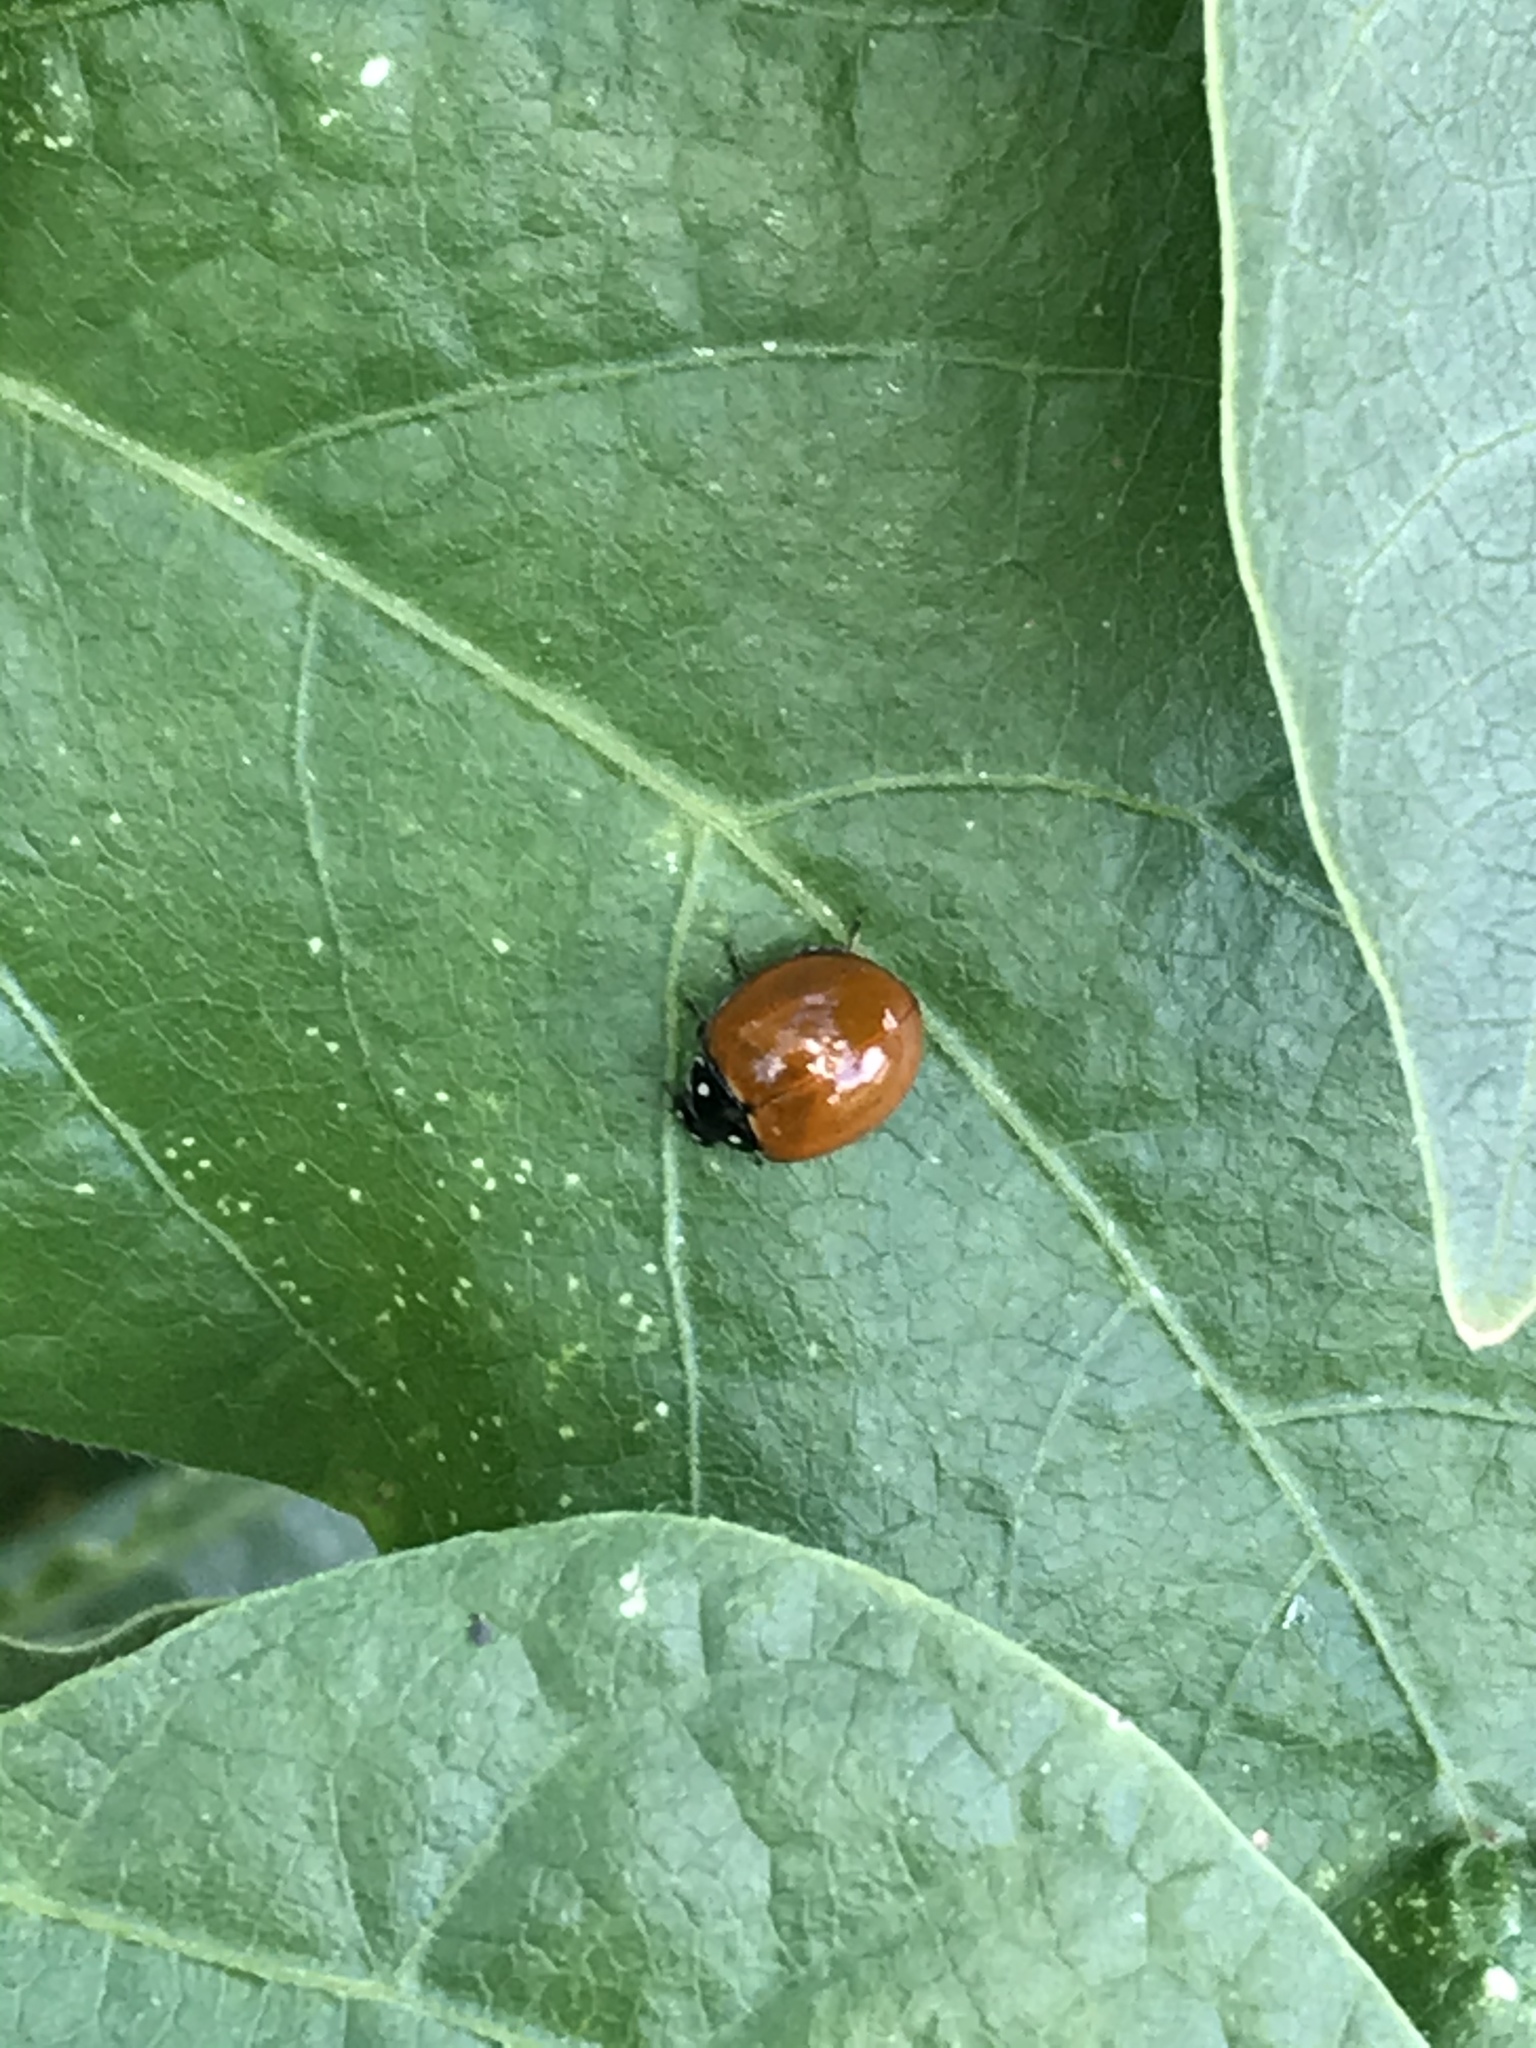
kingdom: Animalia
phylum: Arthropoda
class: Insecta
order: Coleoptera
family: Coccinellidae
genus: Cycloneda
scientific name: Cycloneda sanguinea
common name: Ladybird beetle
